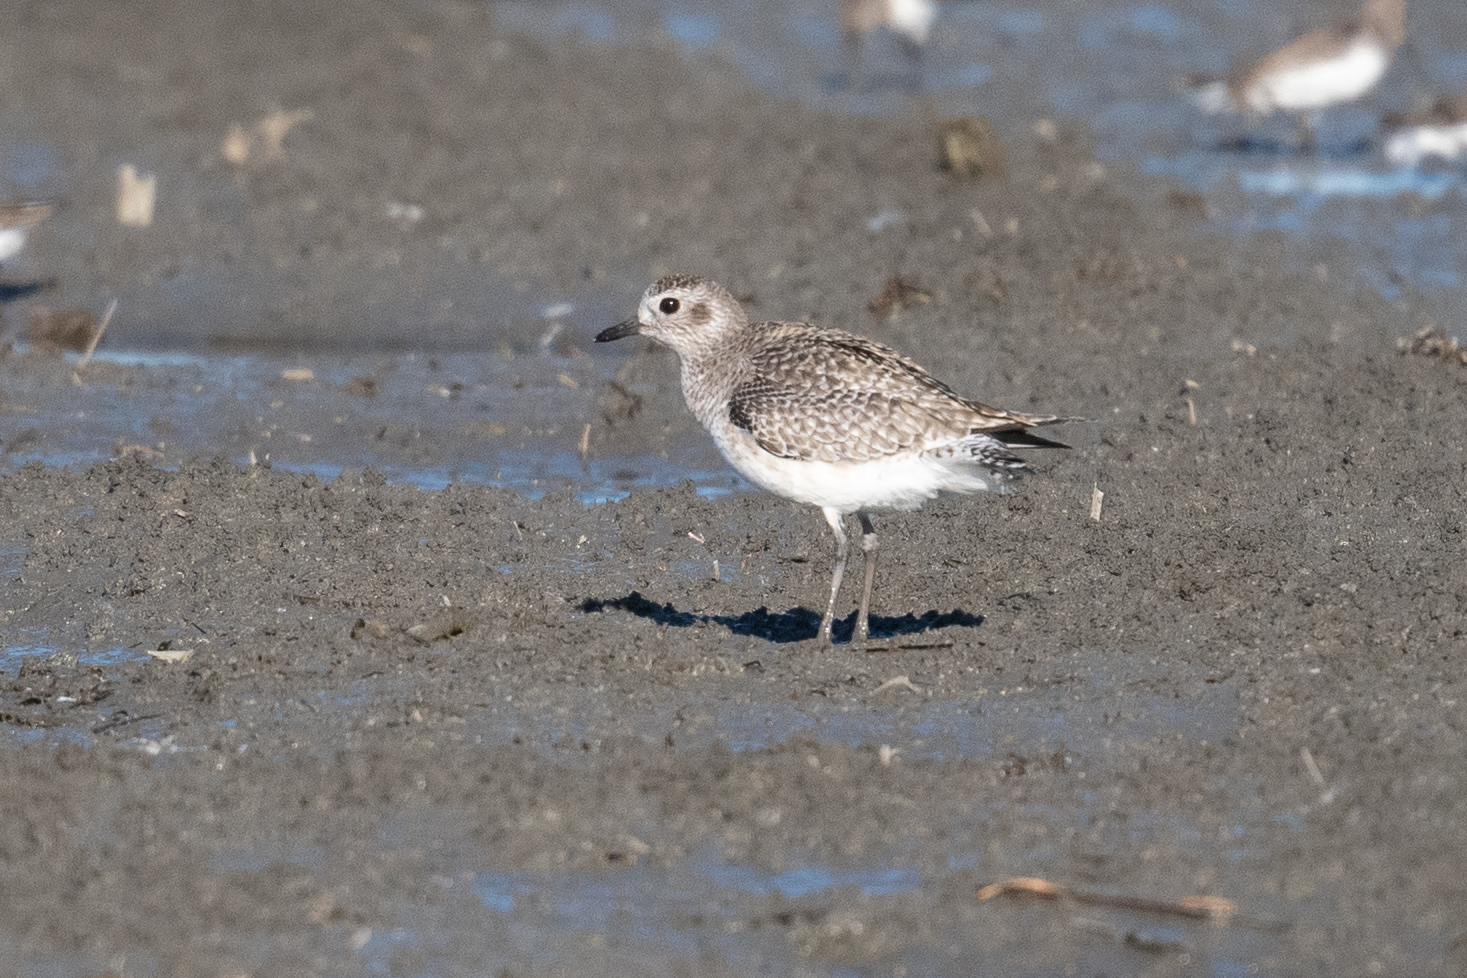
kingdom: Animalia
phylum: Chordata
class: Aves
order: Charadriiformes
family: Charadriidae
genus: Pluvialis
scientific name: Pluvialis squatarola
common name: Grey plover
